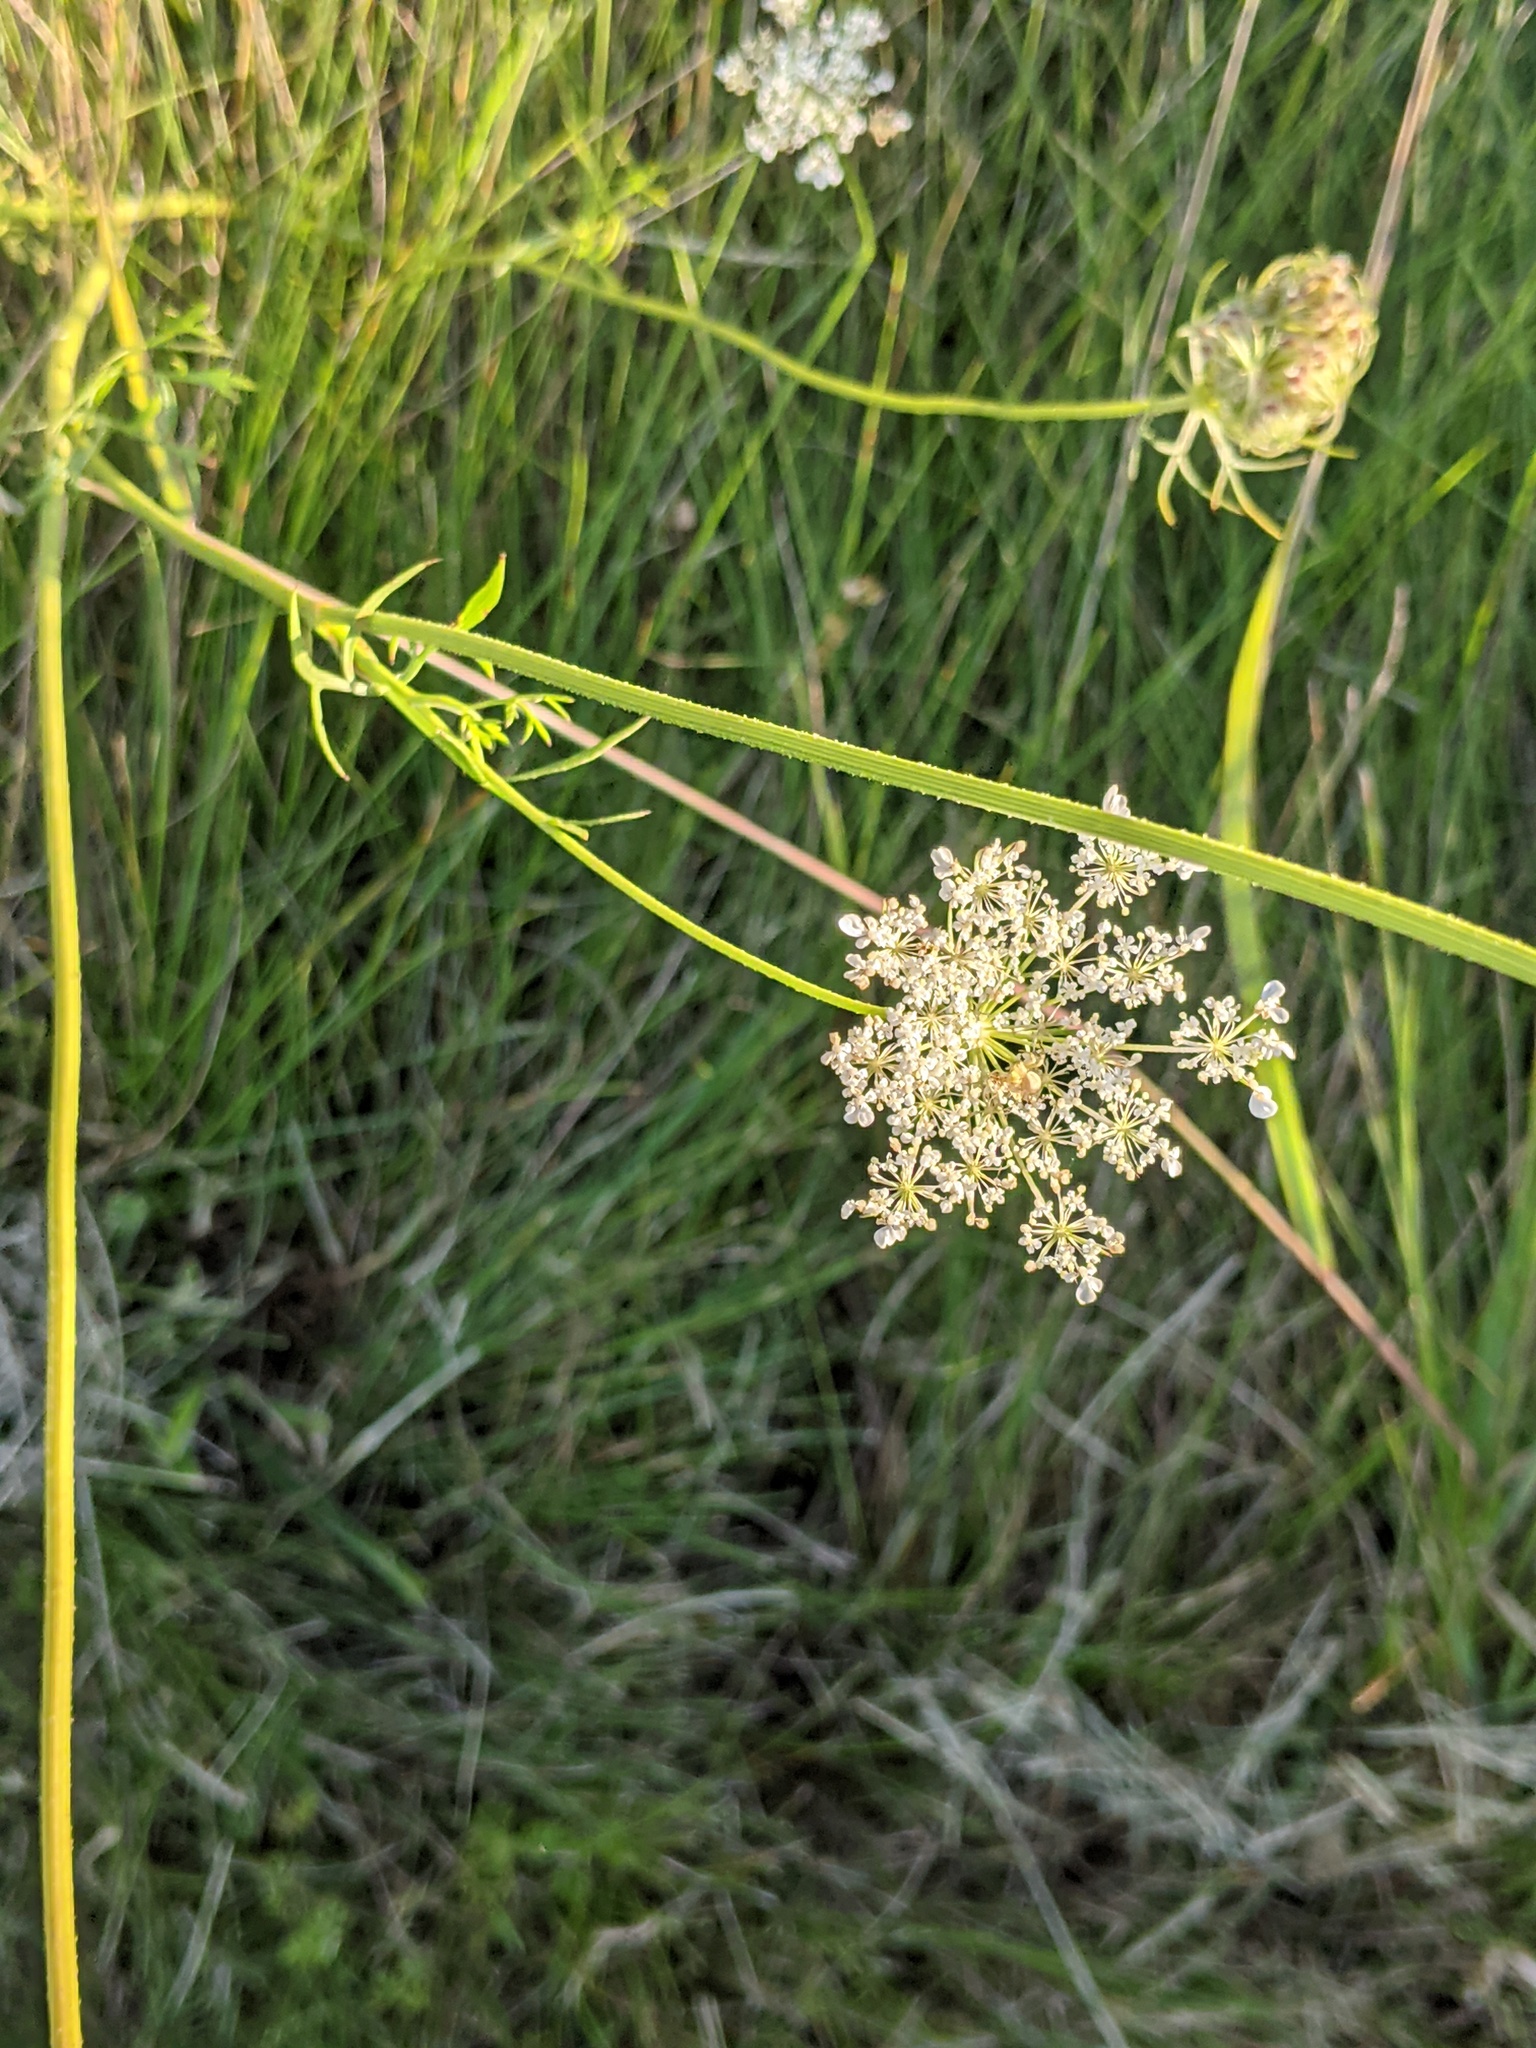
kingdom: Plantae
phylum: Tracheophyta
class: Magnoliopsida
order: Apiales
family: Apiaceae
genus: Daucus
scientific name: Daucus carota
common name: Wild carrot
